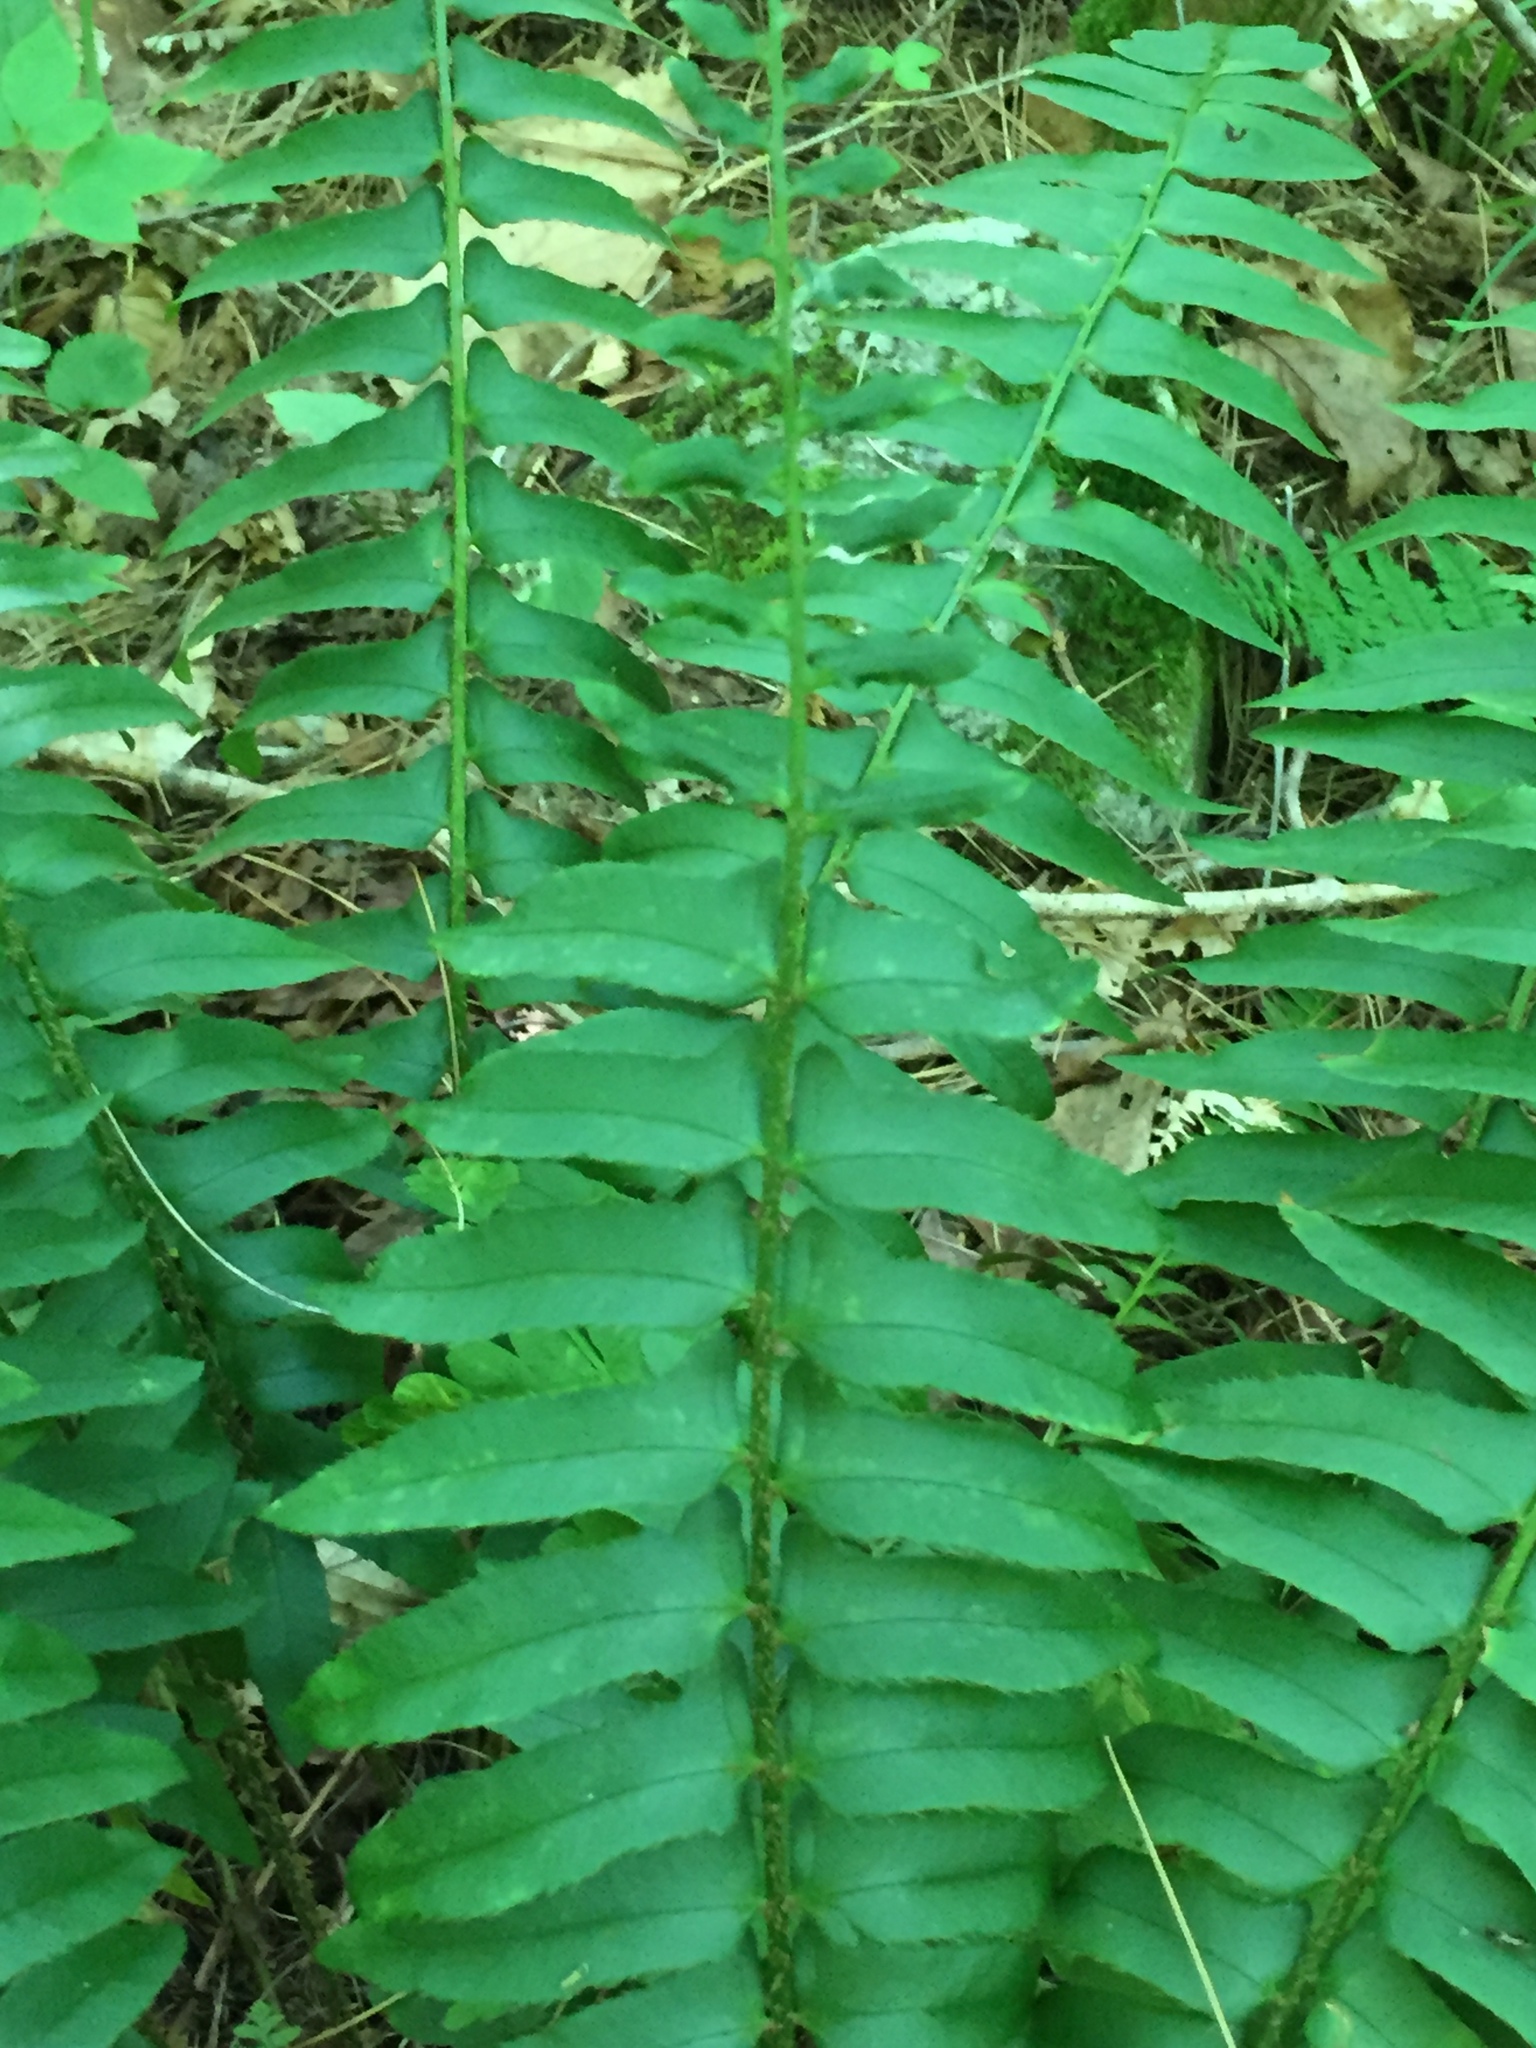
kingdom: Plantae
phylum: Tracheophyta
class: Polypodiopsida
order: Polypodiales
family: Dryopteridaceae
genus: Polystichum
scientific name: Polystichum acrostichoides
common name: Christmas fern
